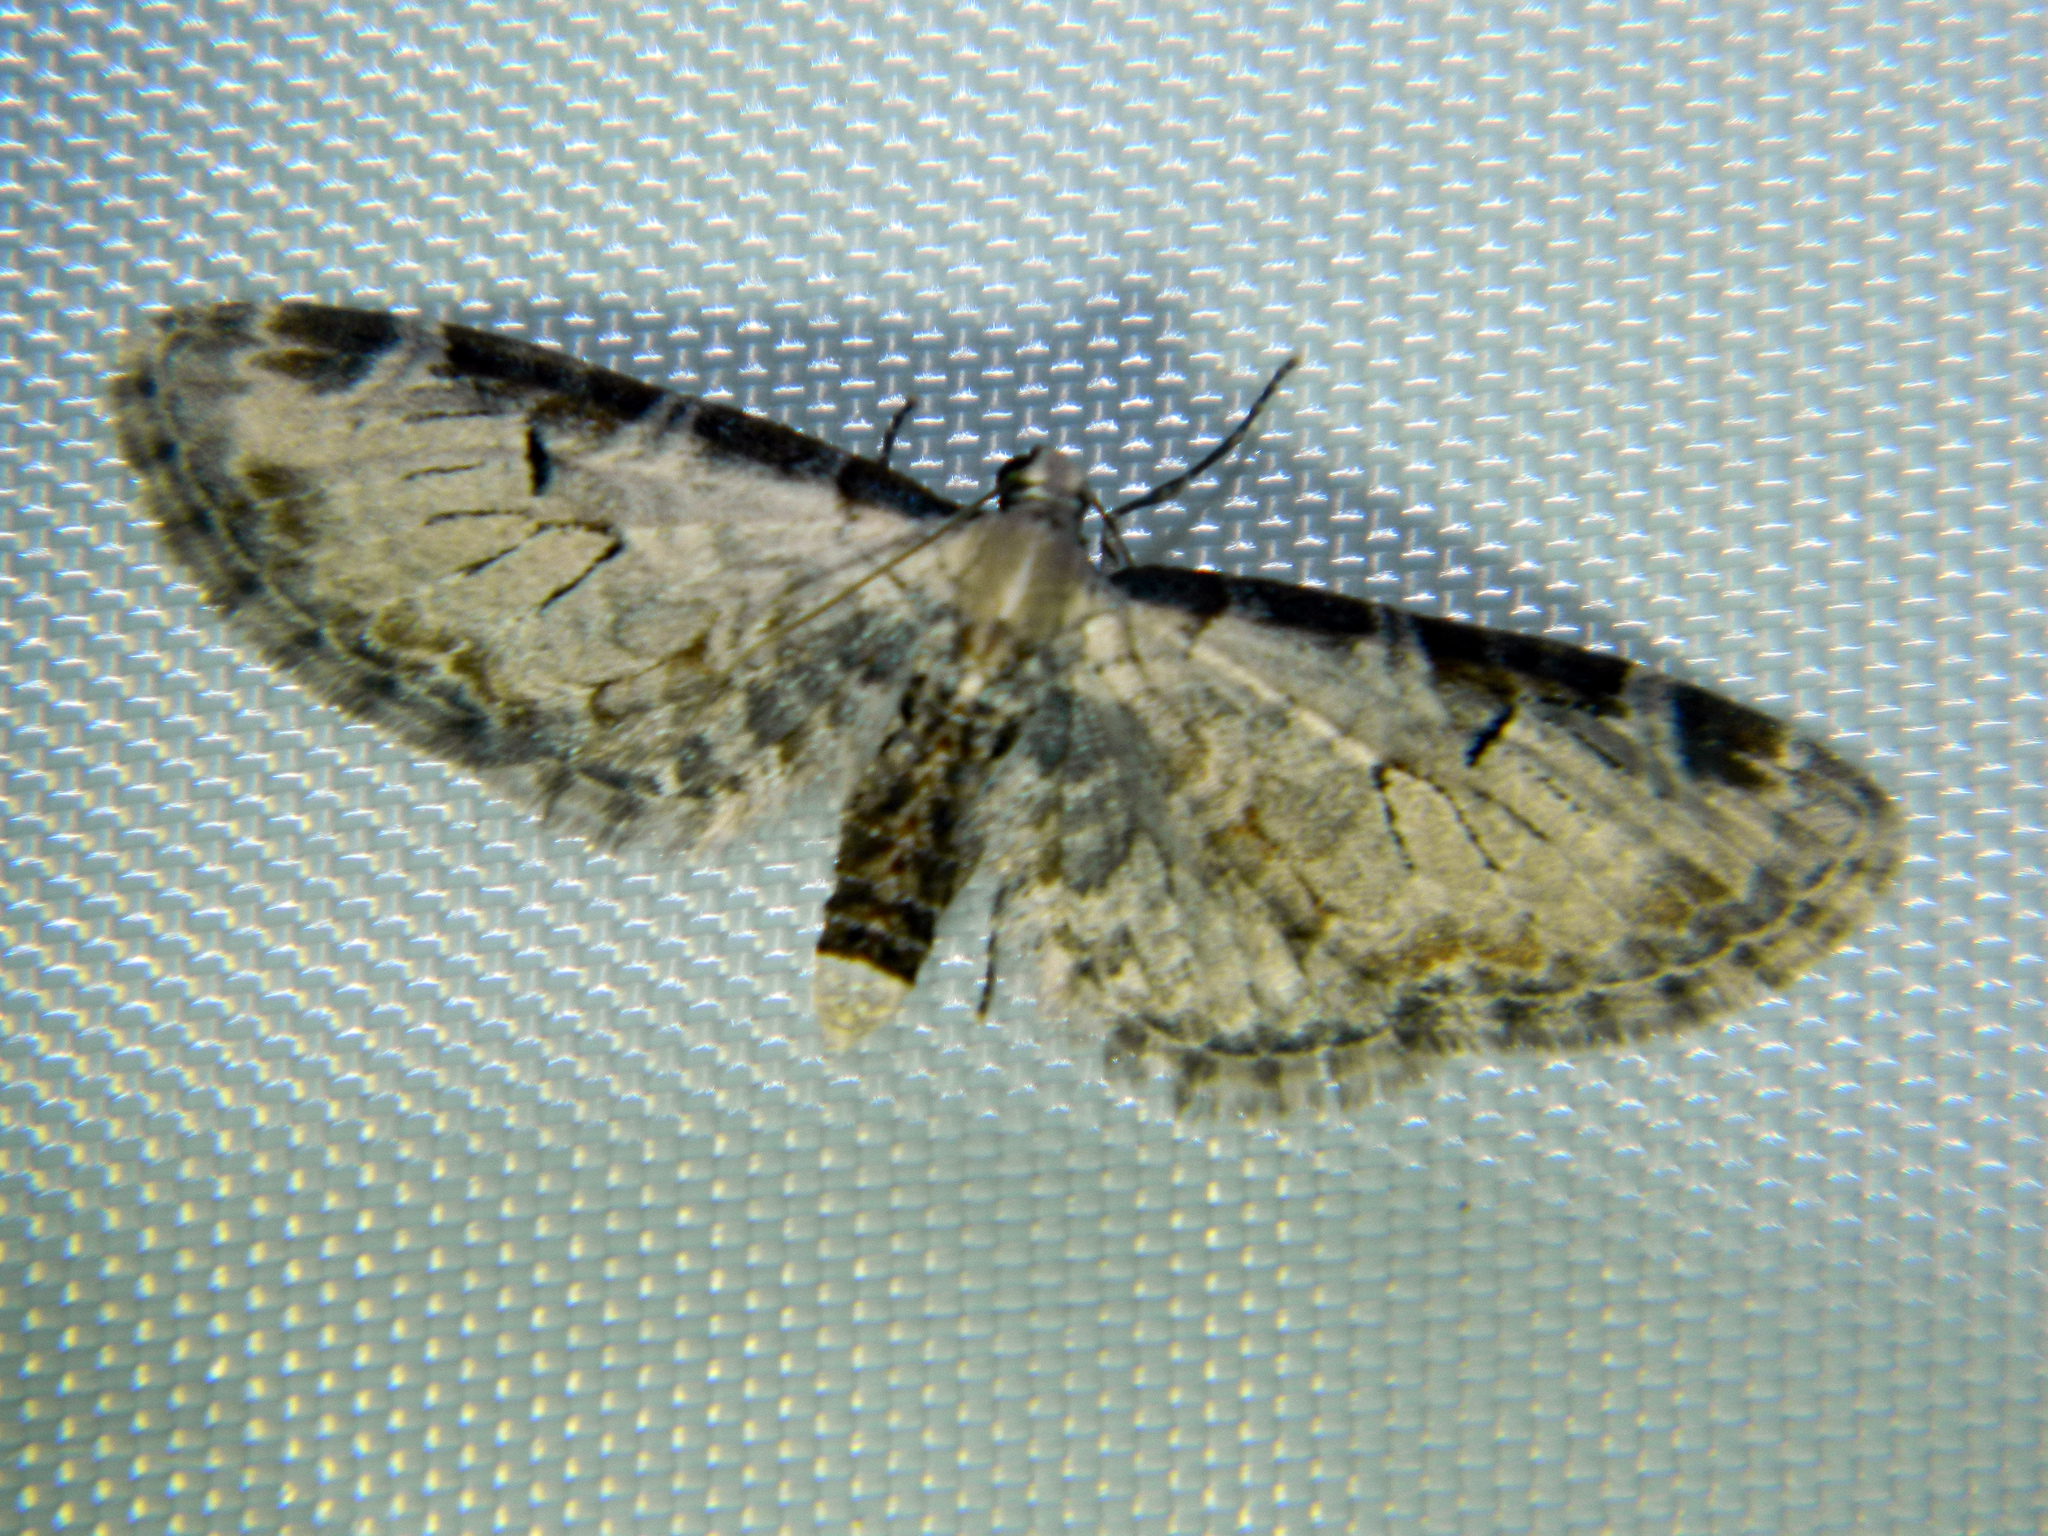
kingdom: Animalia
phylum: Arthropoda
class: Insecta
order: Lepidoptera
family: Geometridae
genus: Eupithecia
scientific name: Eupithecia ravocostaliata
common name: Great varigated pug
